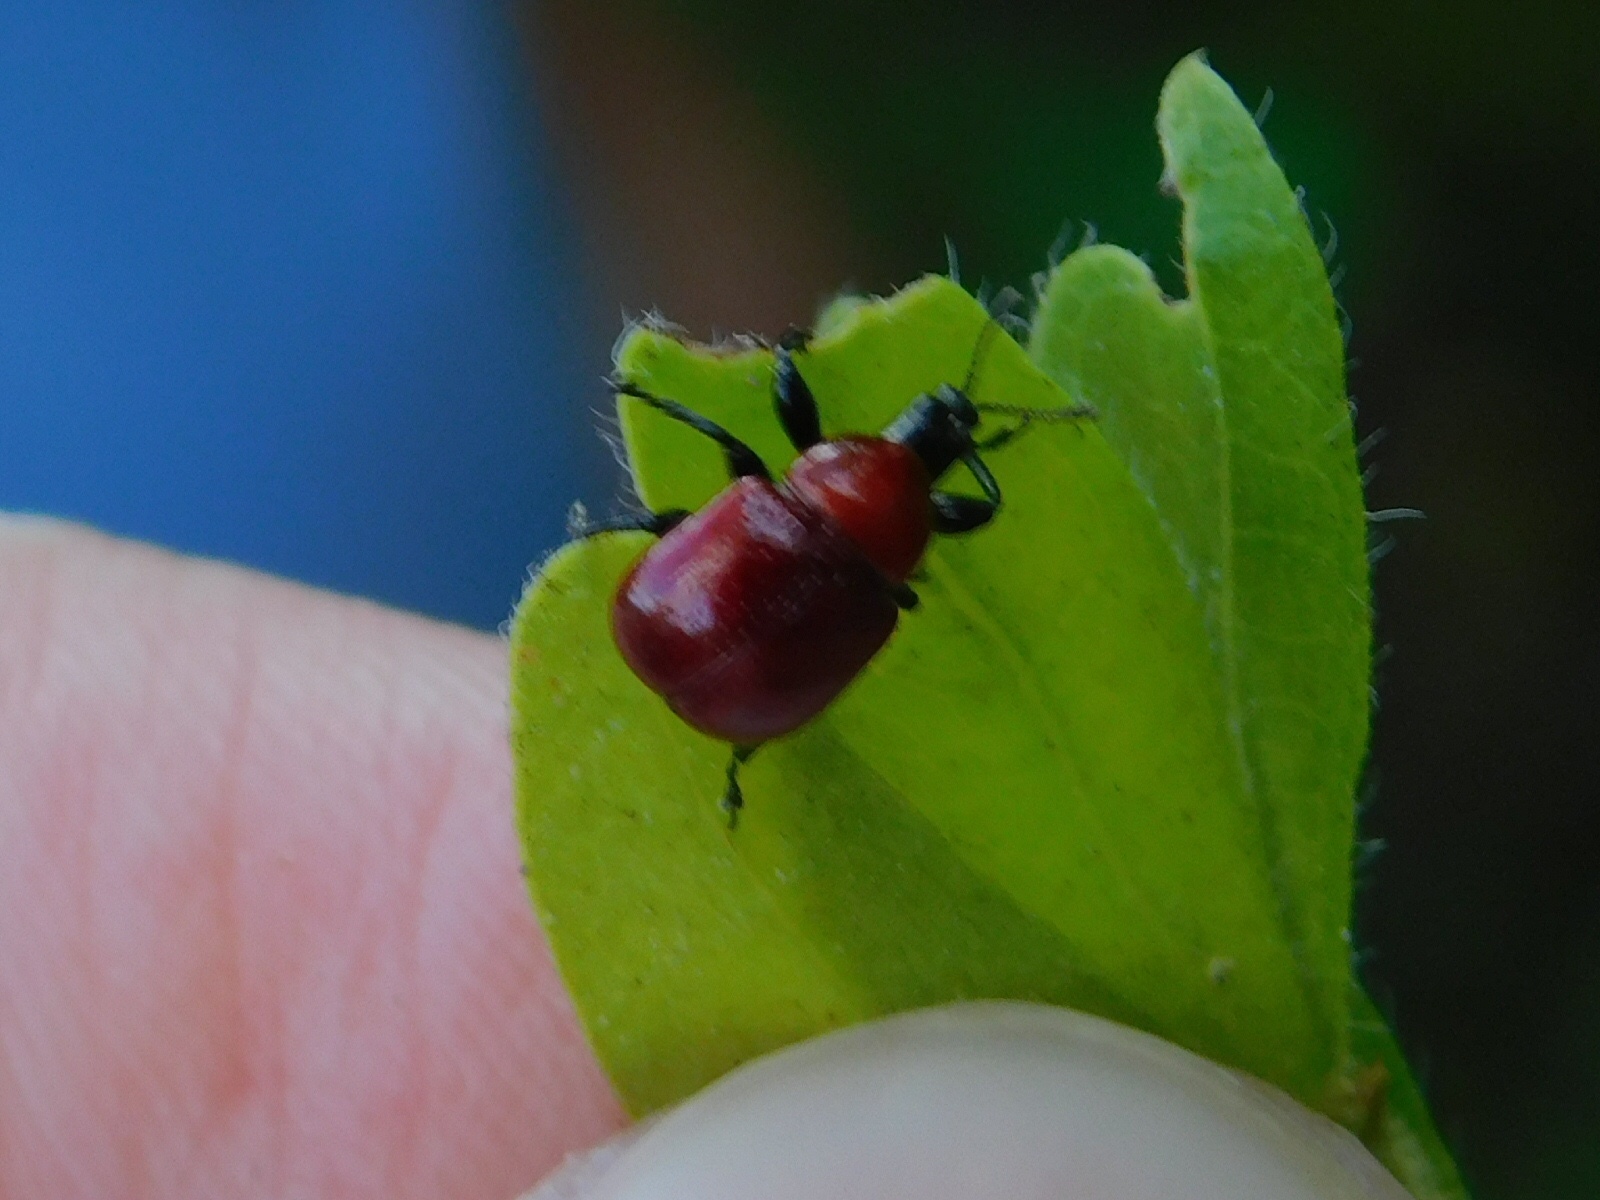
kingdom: Animalia
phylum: Arthropoda
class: Insecta
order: Coleoptera
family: Attelabidae
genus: Homoeolabus
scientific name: Homoeolabus analis
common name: Oak leaf rolling weevil
